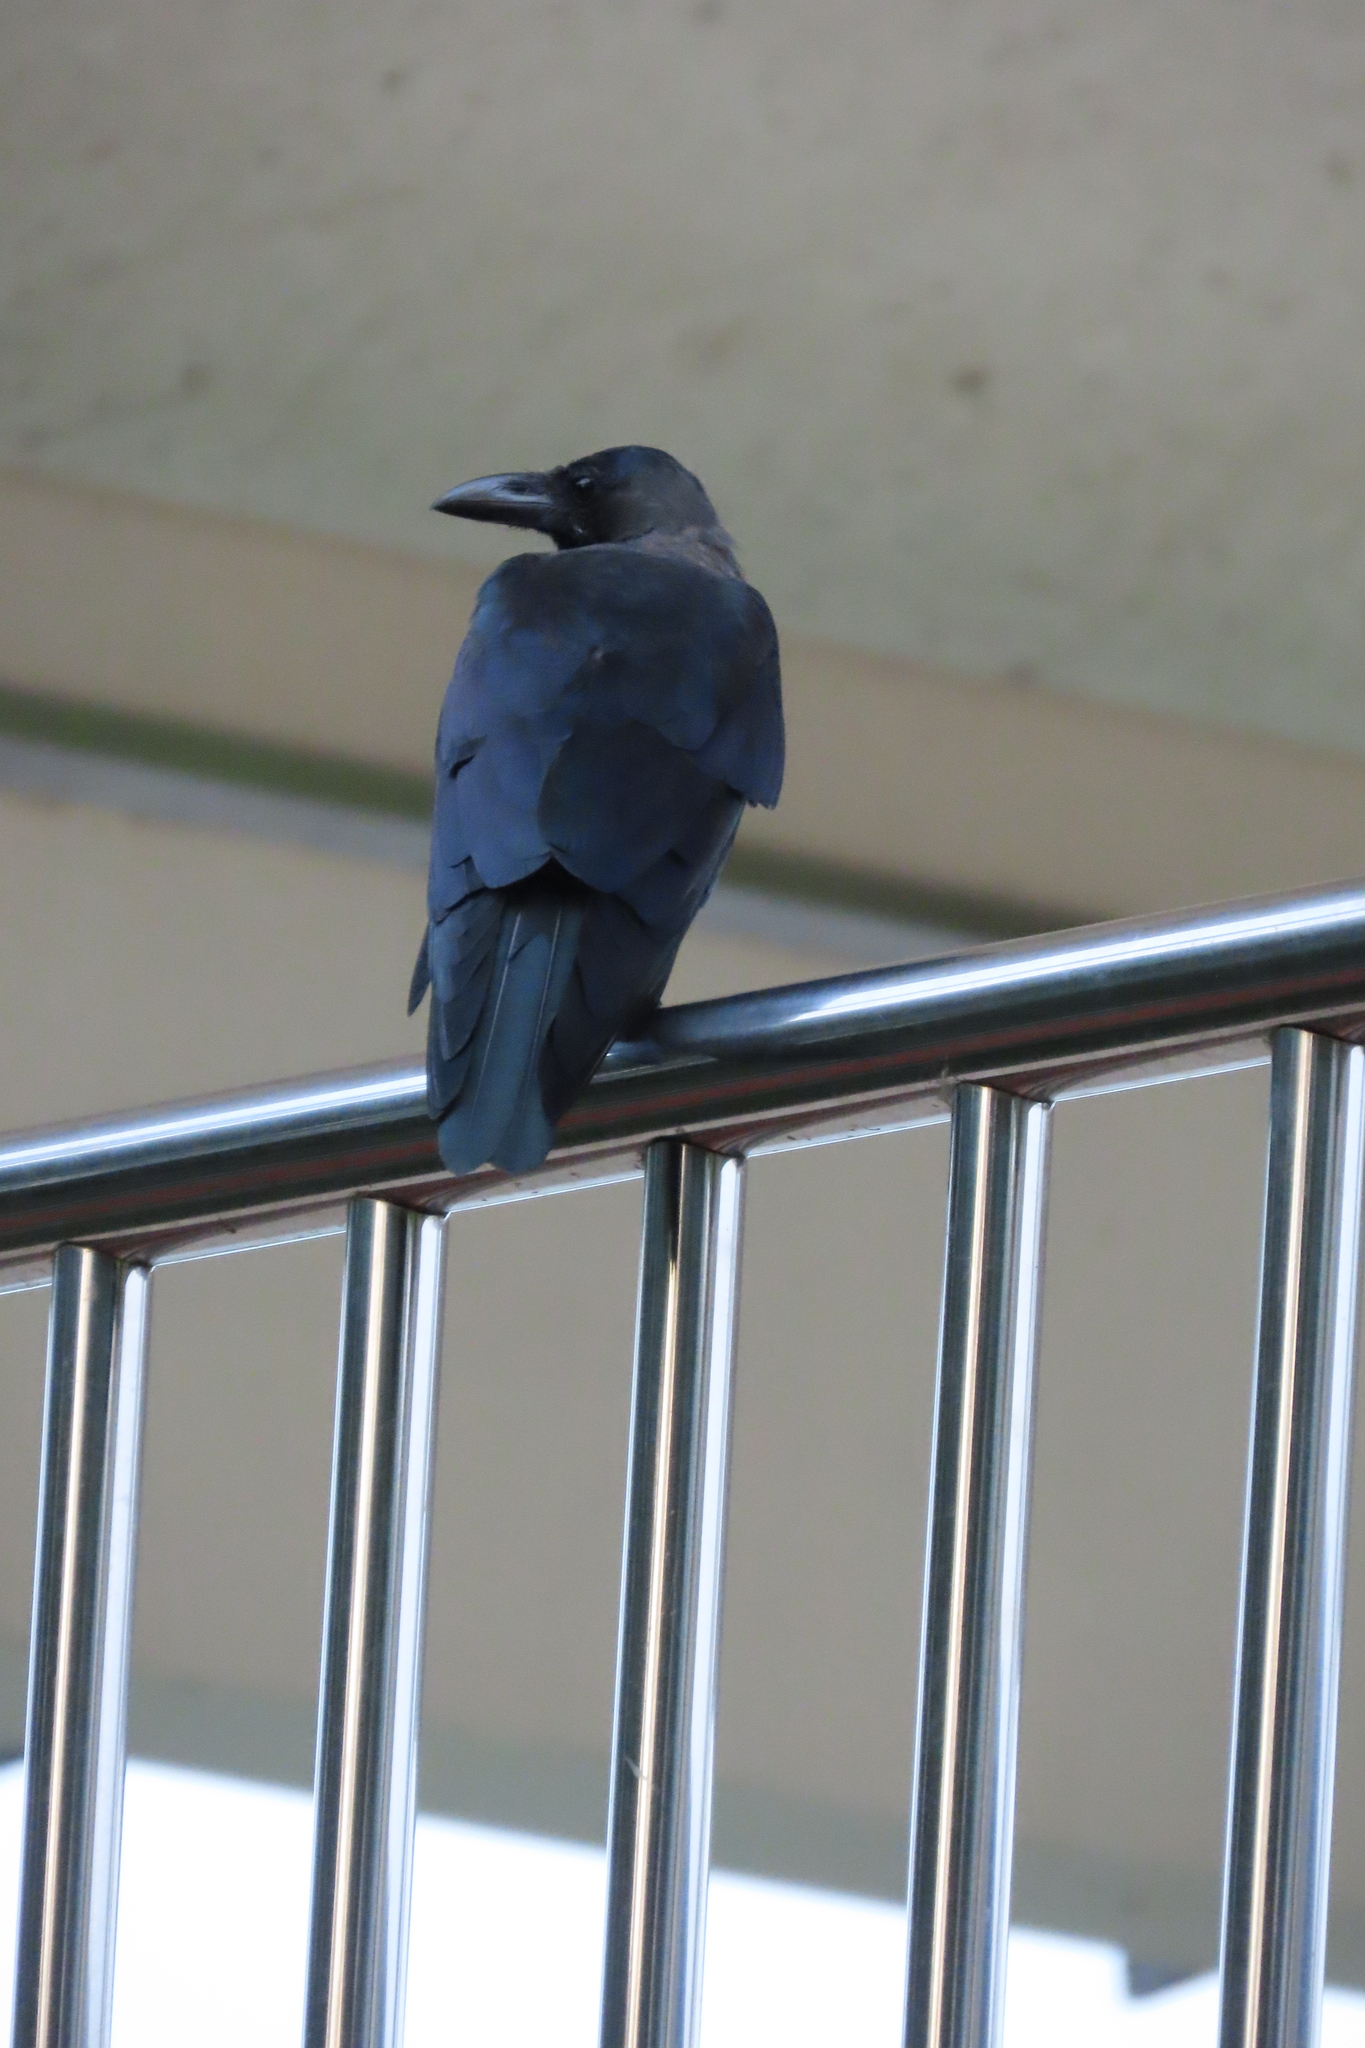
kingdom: Animalia
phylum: Chordata
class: Aves
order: Passeriformes
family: Corvidae
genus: Corvus
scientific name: Corvus splendens
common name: House crow
